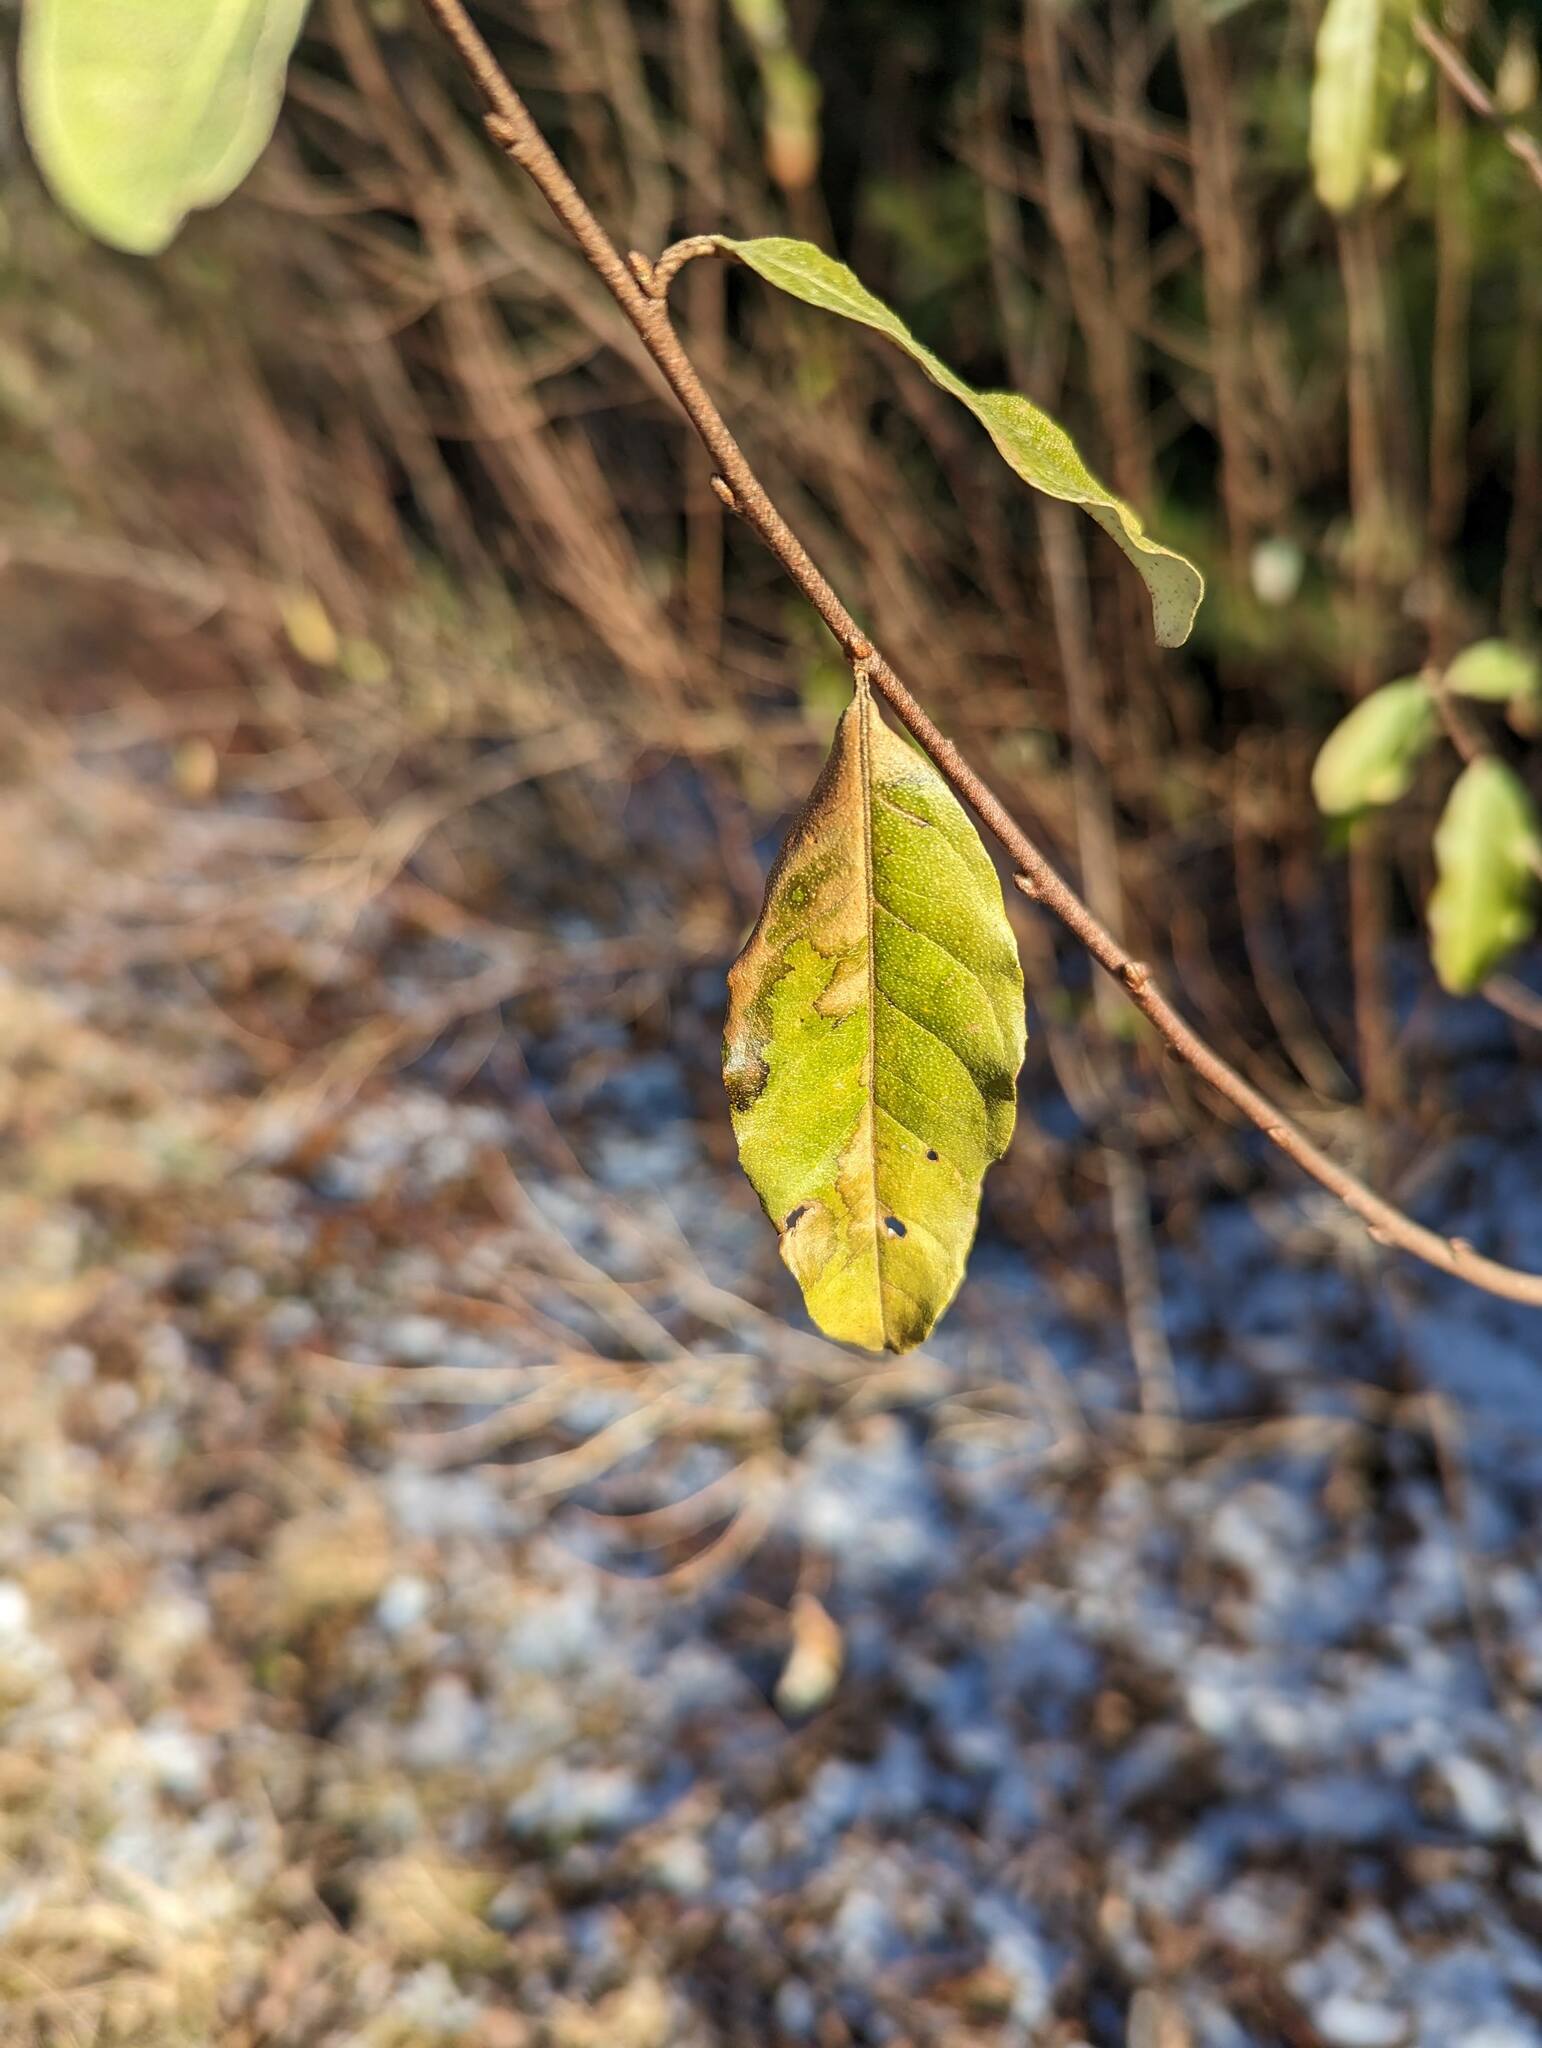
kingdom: Plantae
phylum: Tracheophyta
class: Magnoliopsida
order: Rosales
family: Elaeagnaceae
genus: Elaeagnus
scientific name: Elaeagnus umbellata
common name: Autumn olive
